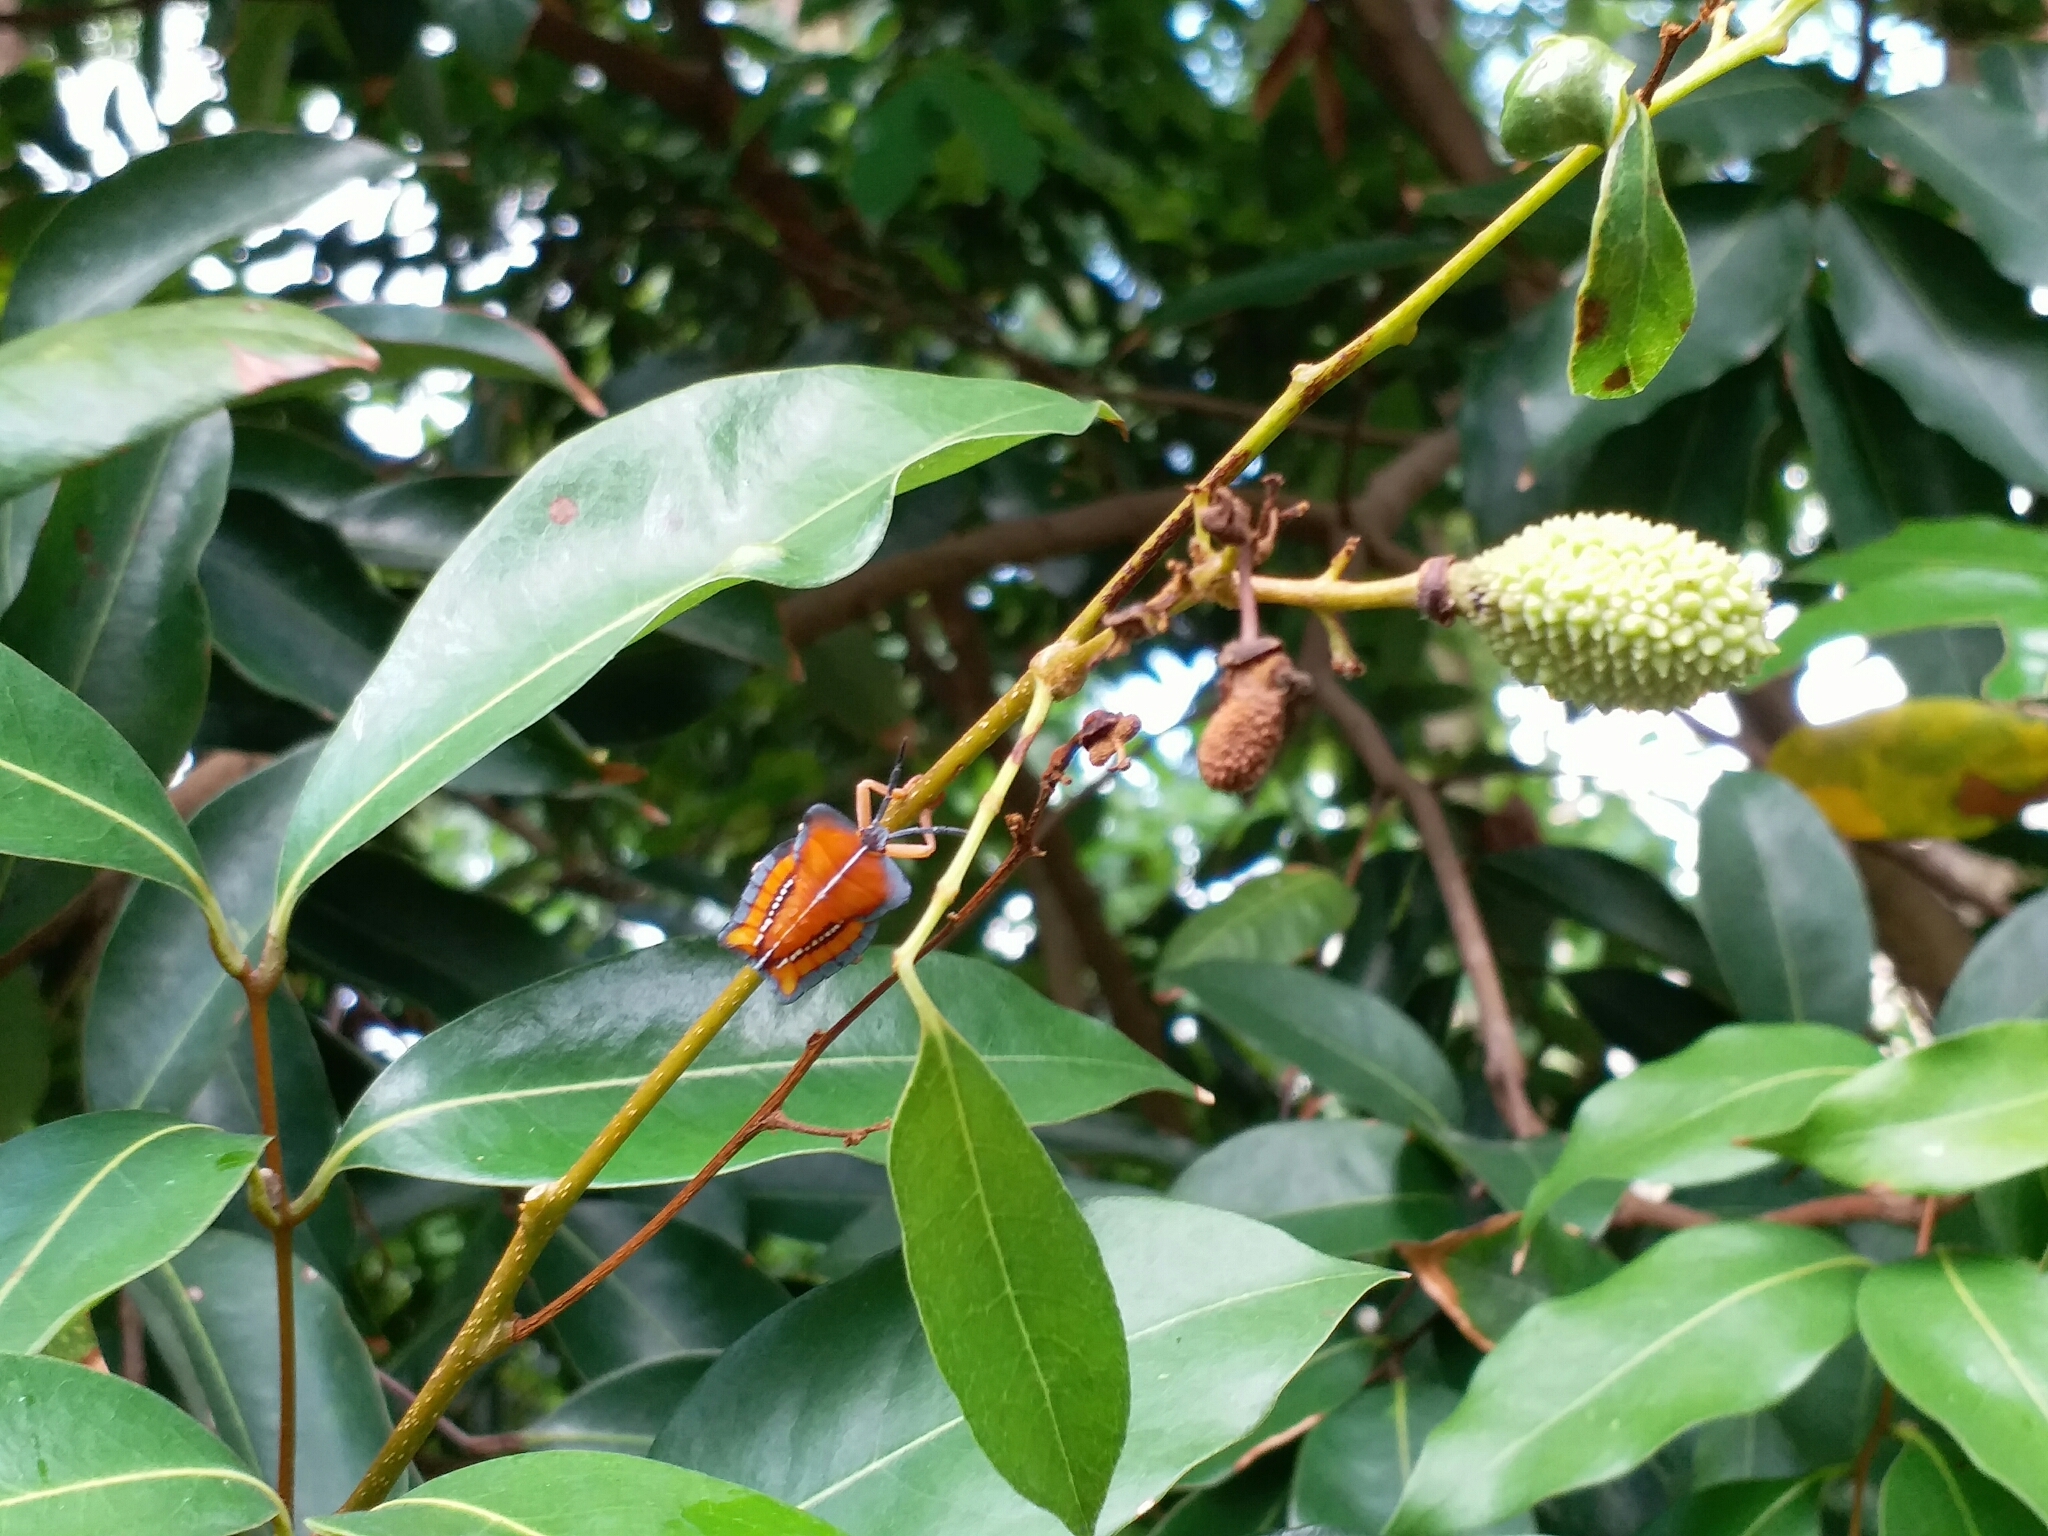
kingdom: Animalia
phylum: Arthropoda
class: Insecta
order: Hemiptera
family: Tessaratomidae
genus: Tessaratoma
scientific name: Tessaratoma papillosa
